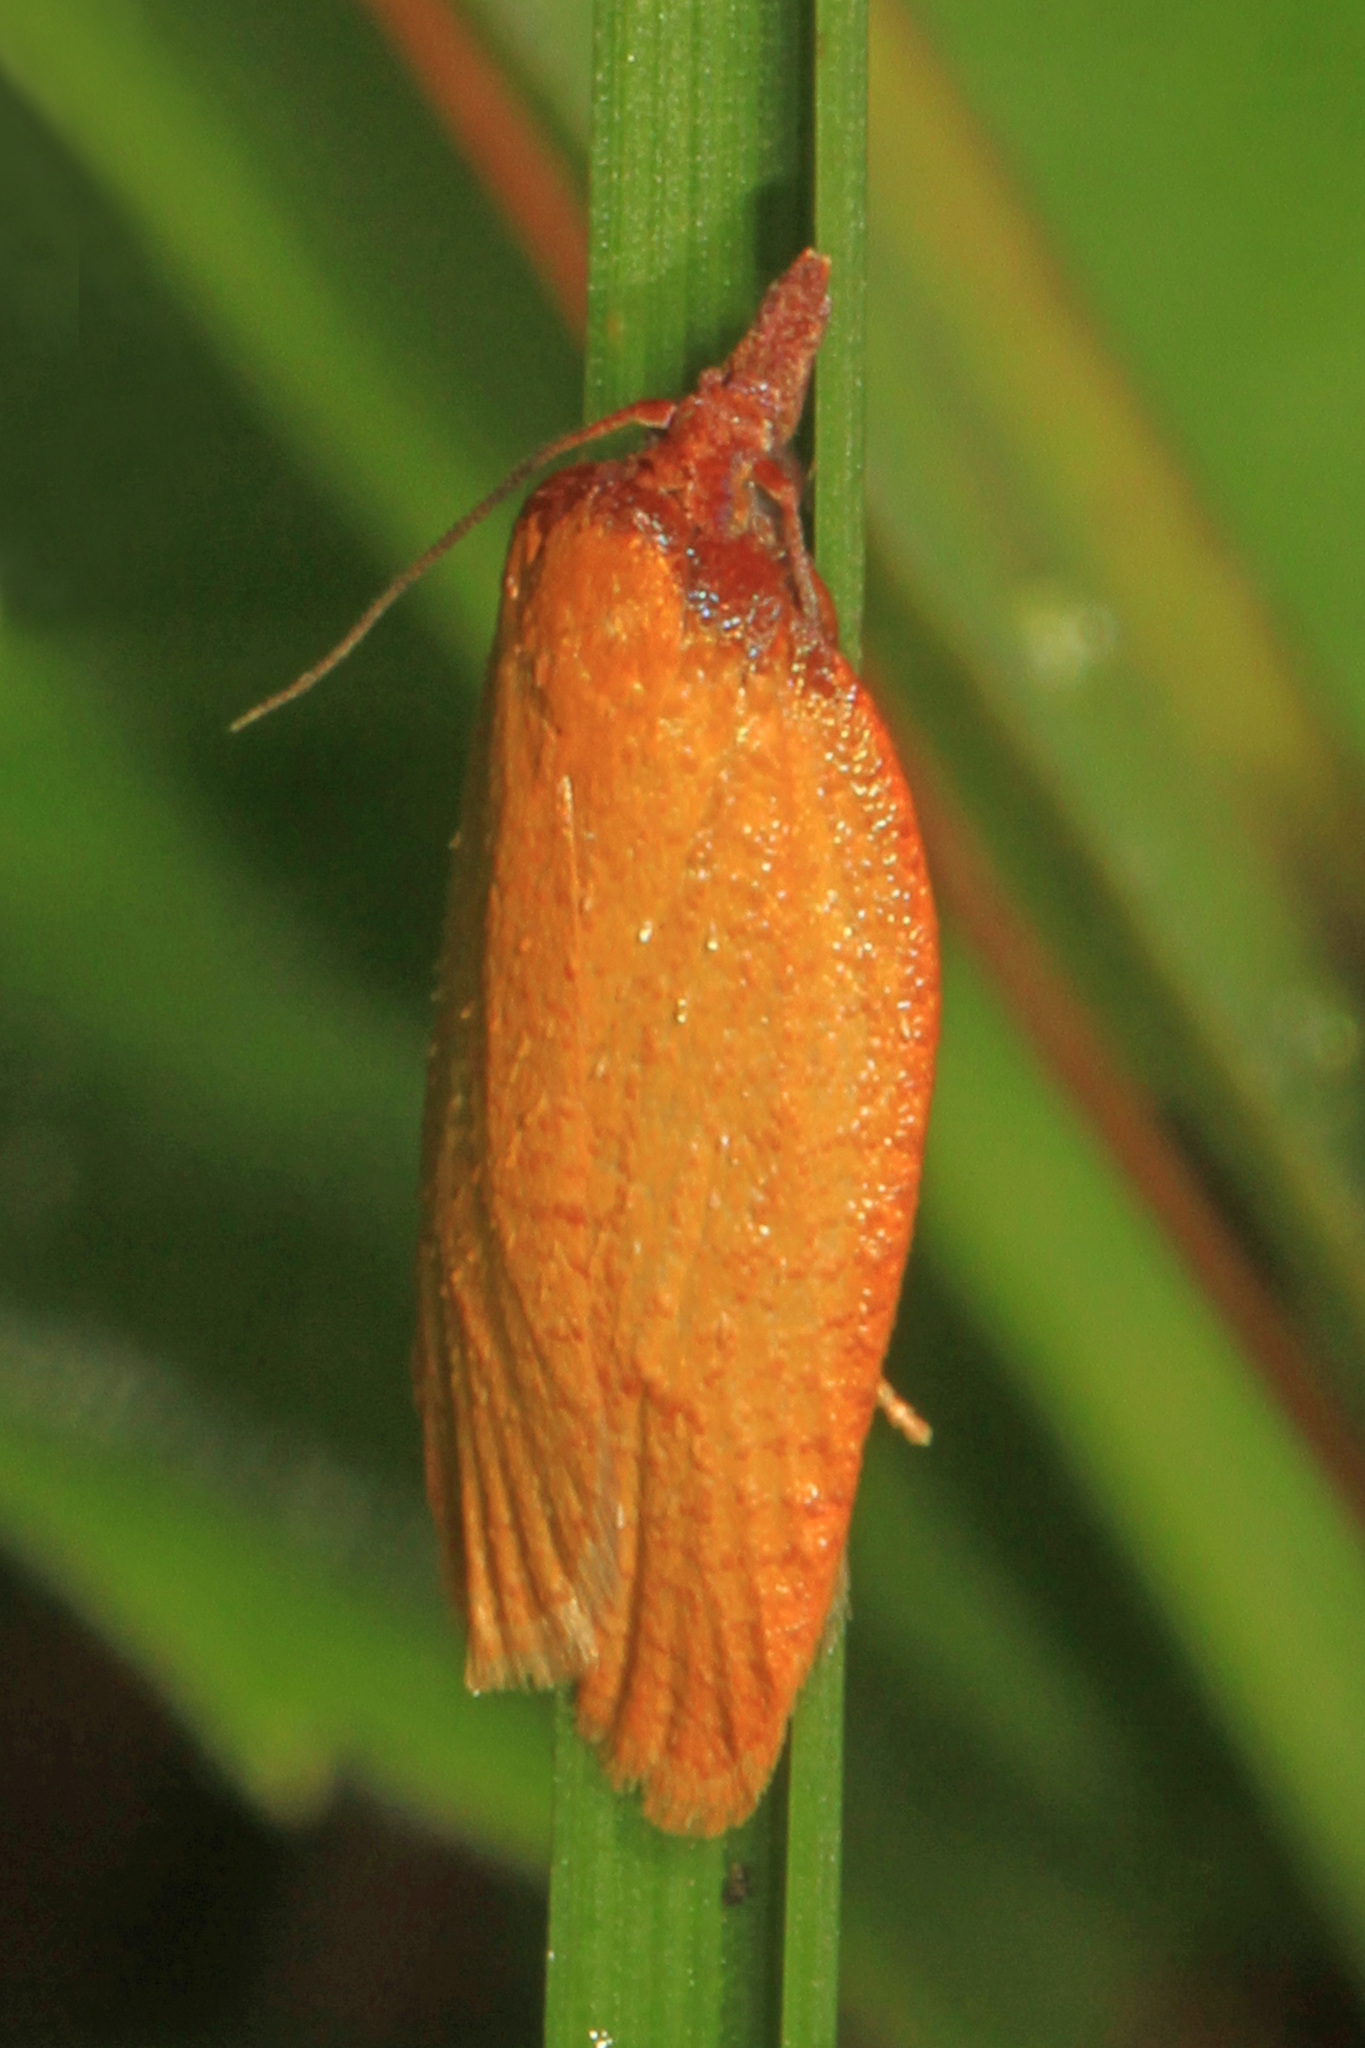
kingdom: Animalia
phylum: Arthropoda
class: Insecta
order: Lepidoptera
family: Tortricidae
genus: Sparganothis
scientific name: Sparganothis distincta
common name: Distinct sparganothis moth
